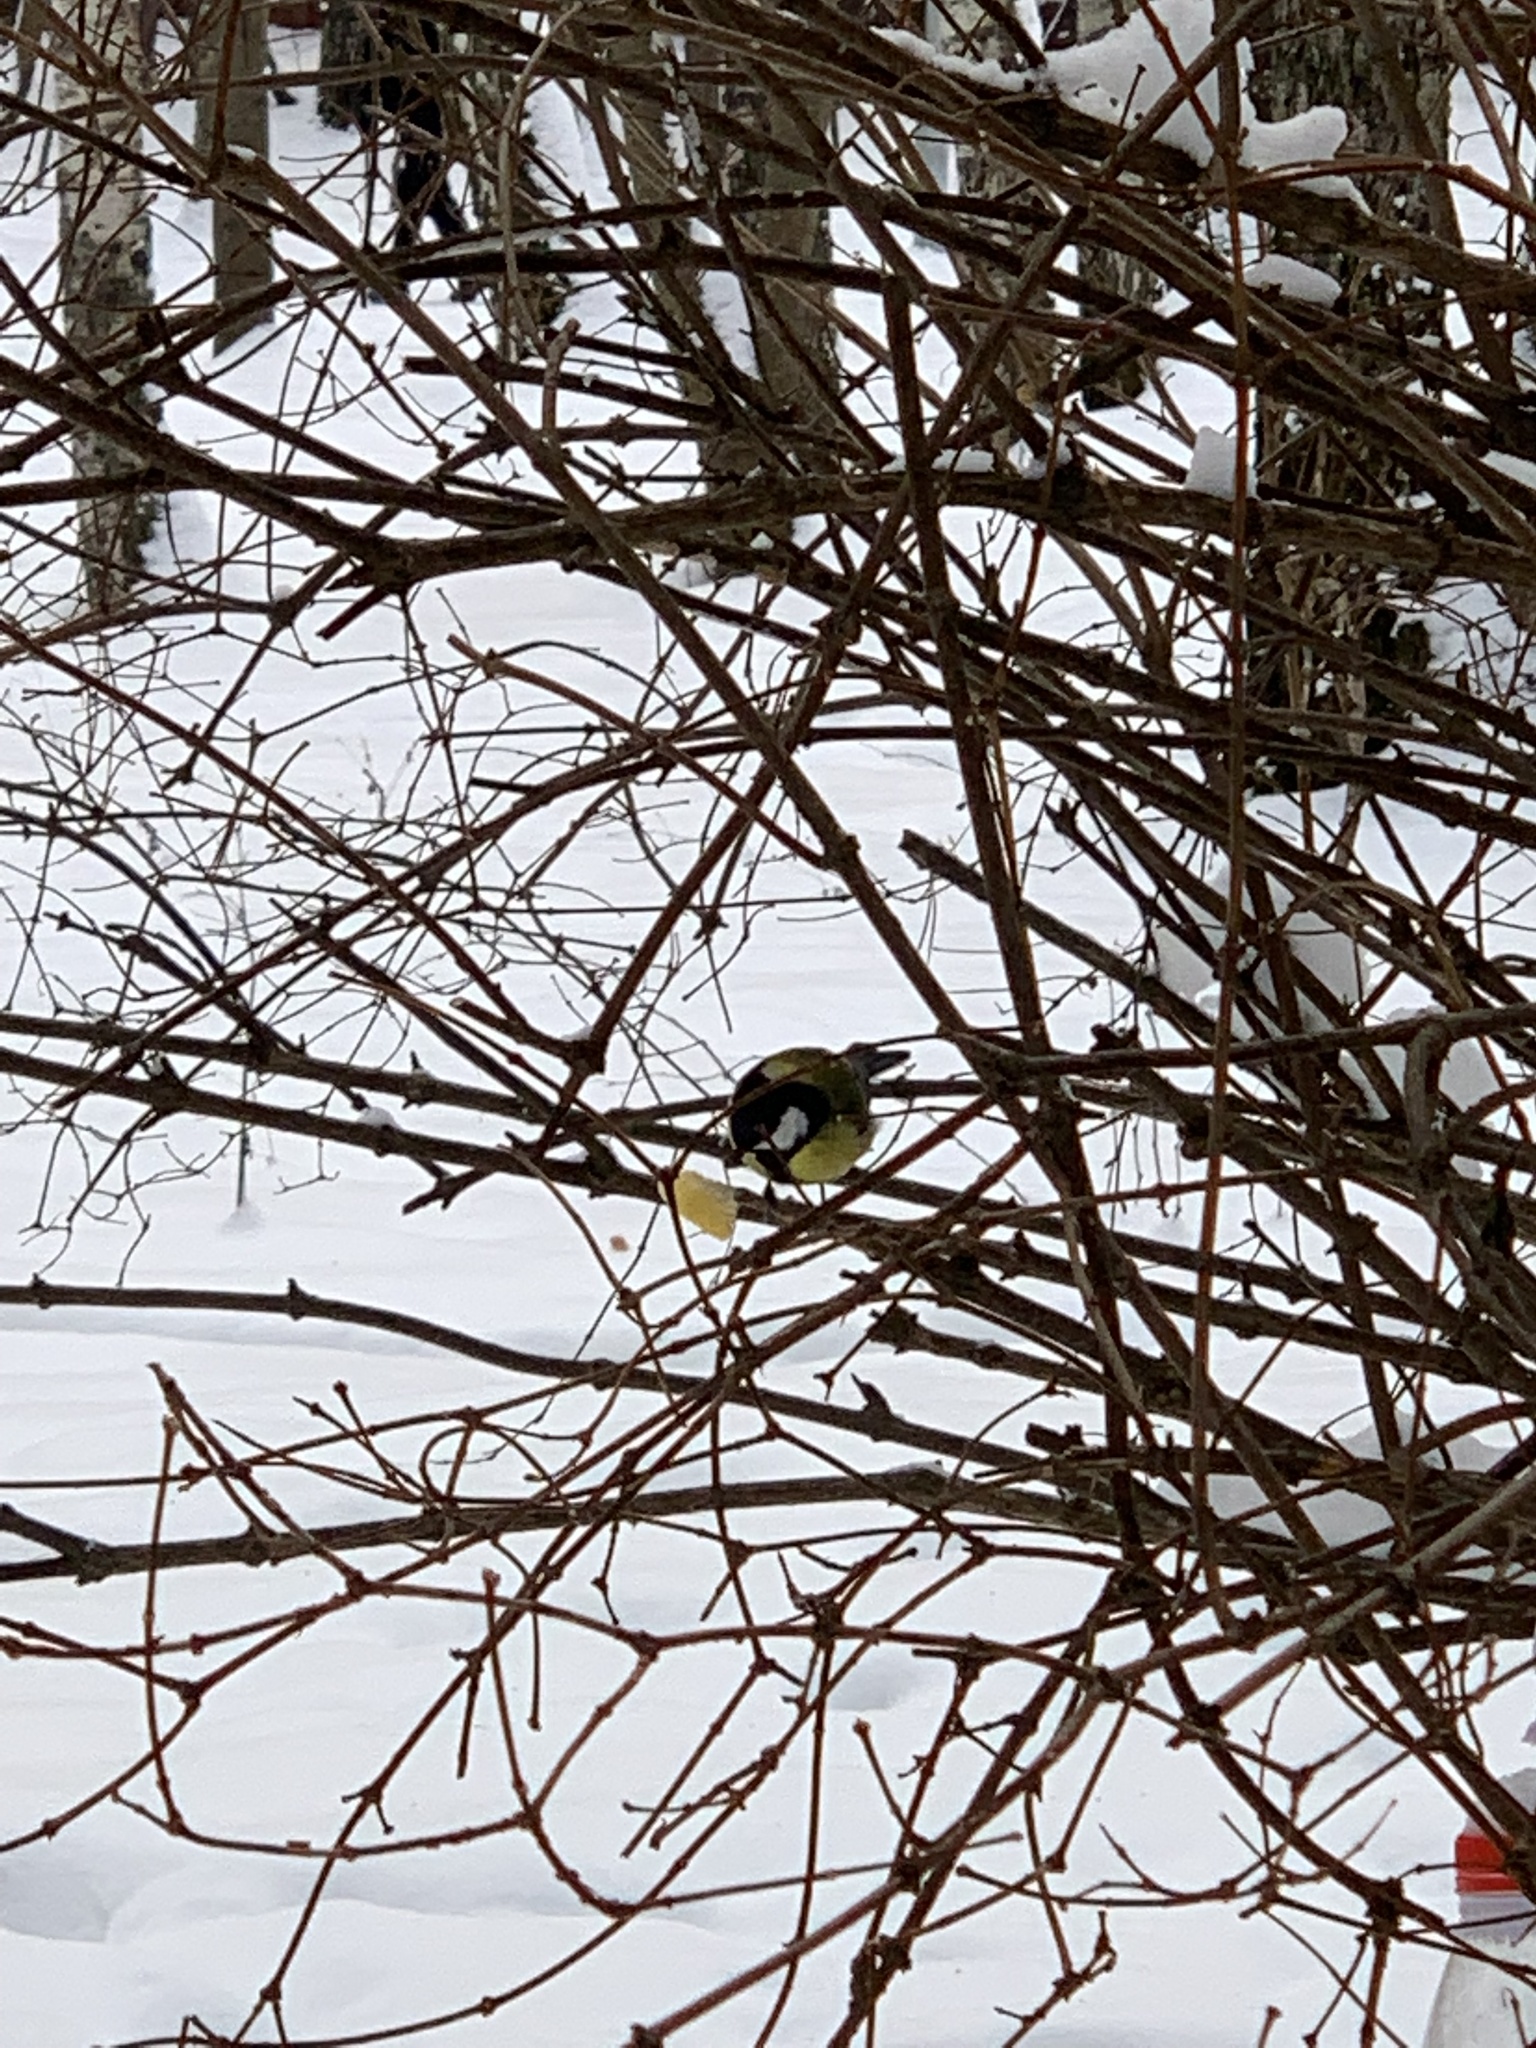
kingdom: Animalia
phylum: Chordata
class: Aves
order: Passeriformes
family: Paridae
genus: Parus
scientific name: Parus major
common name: Great tit
